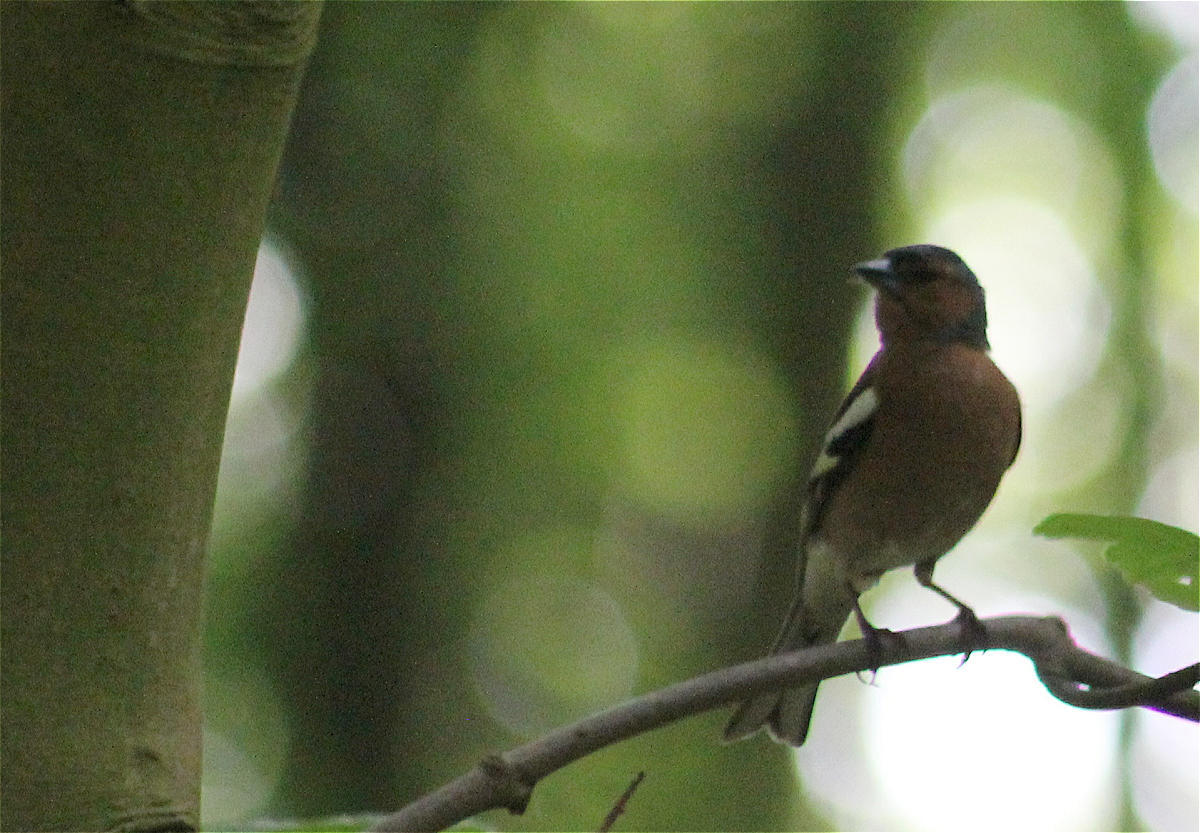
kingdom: Animalia
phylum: Chordata
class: Aves
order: Passeriformes
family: Fringillidae
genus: Fringilla
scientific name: Fringilla coelebs
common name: Common chaffinch
